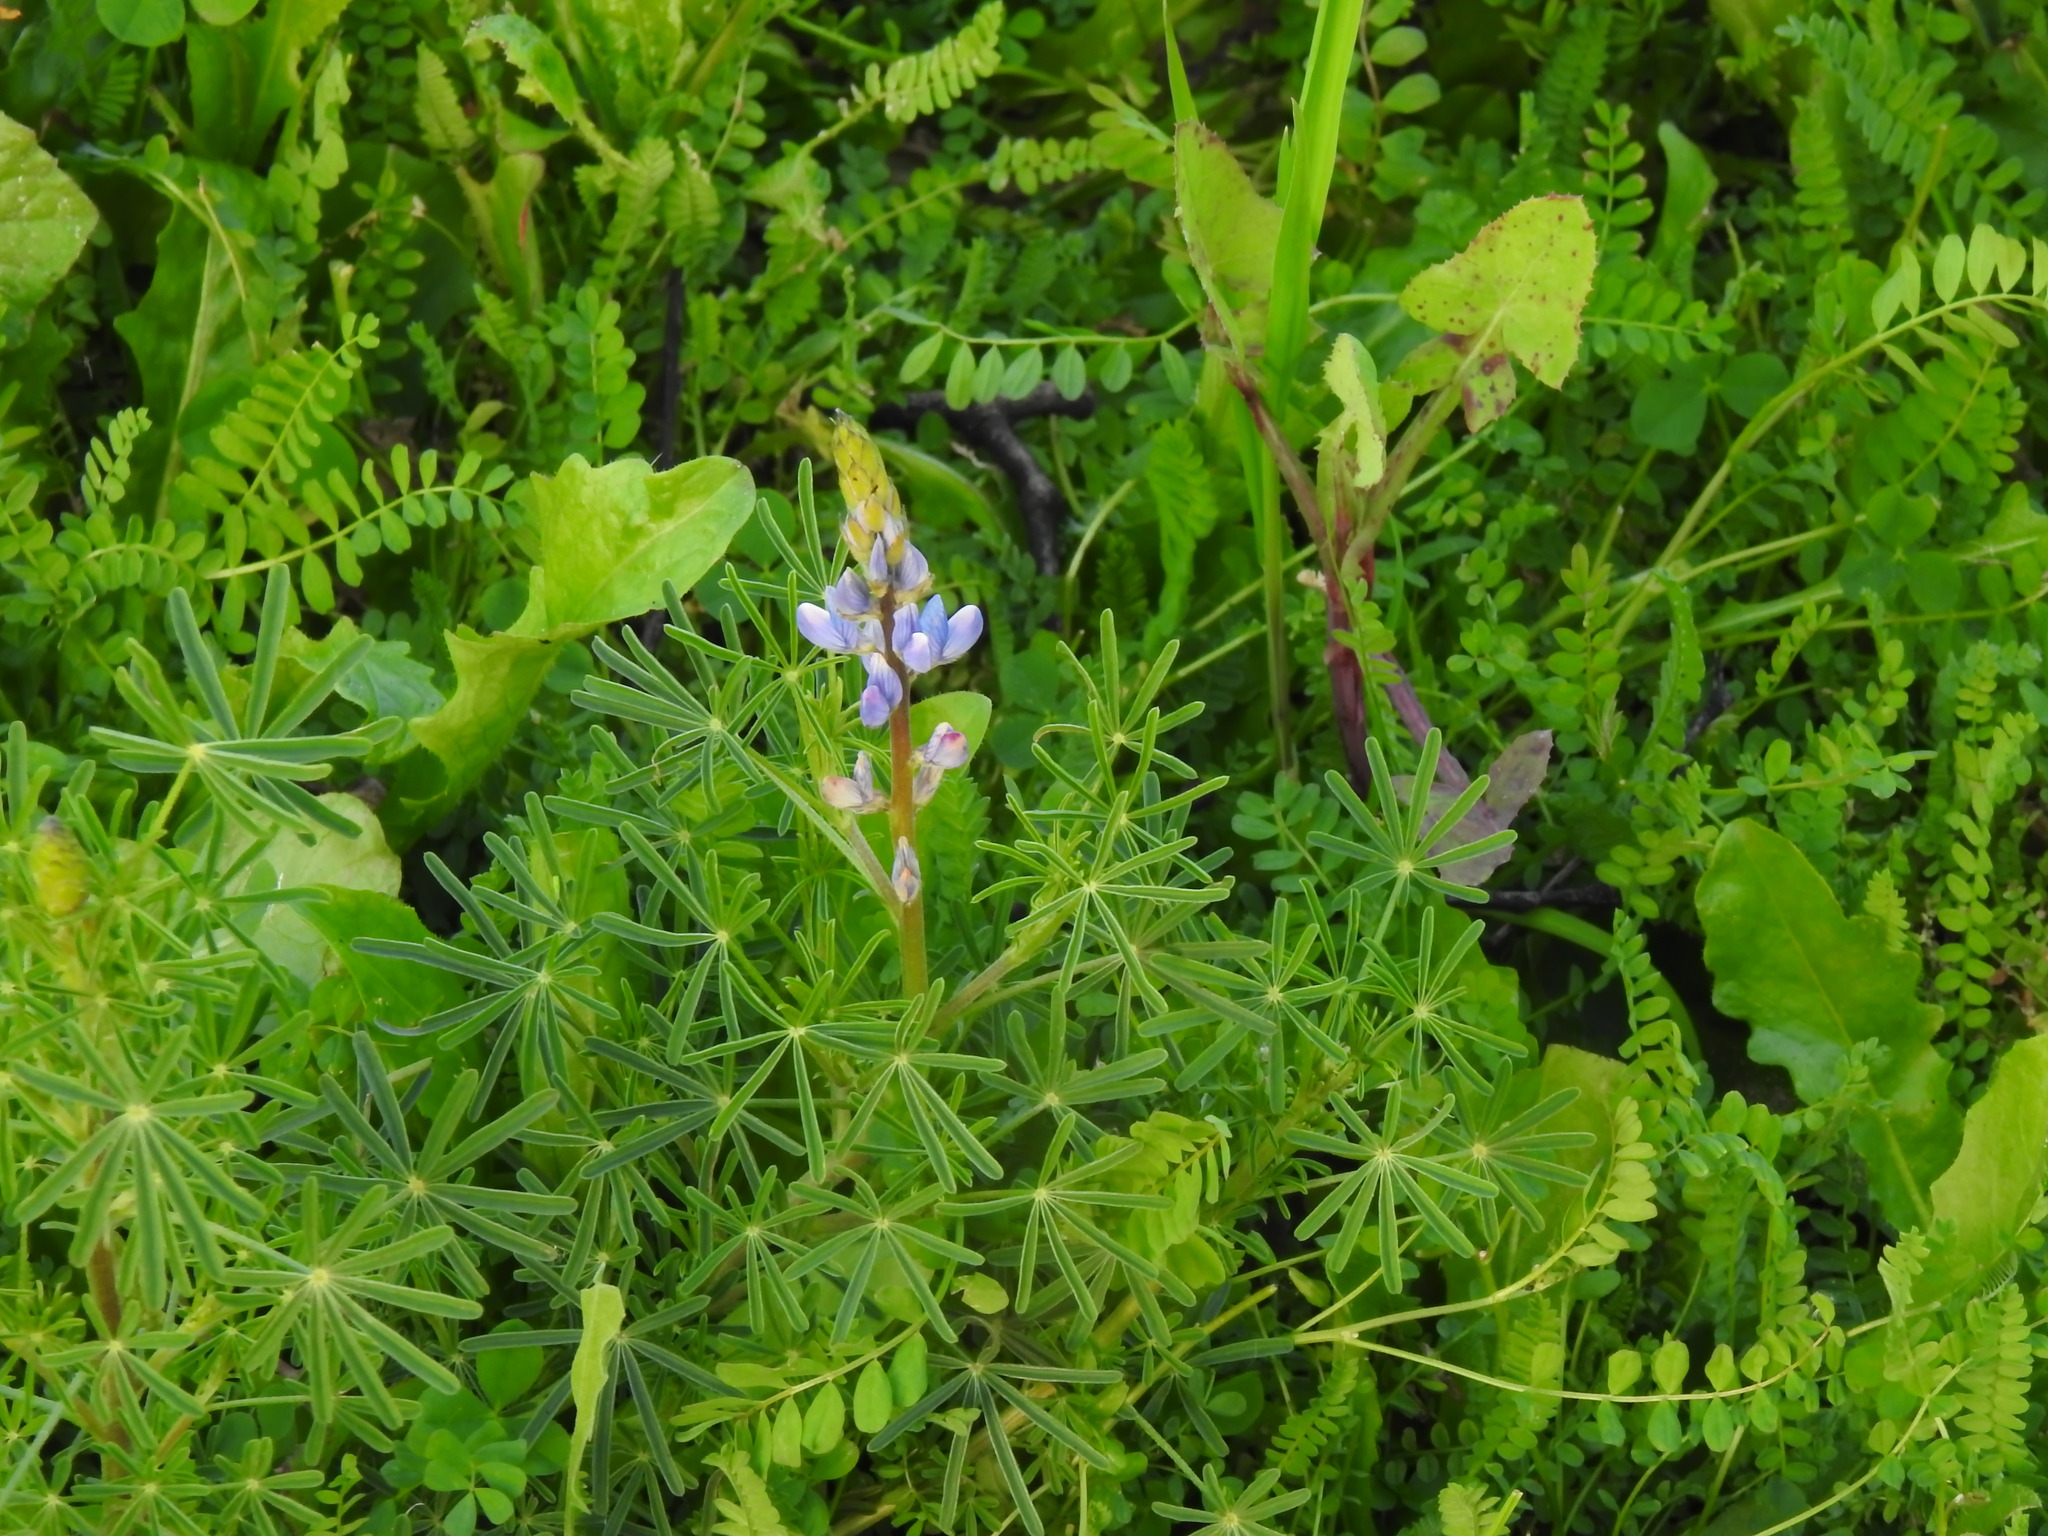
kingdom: Plantae
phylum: Tracheophyta
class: Magnoliopsida
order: Fabales
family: Fabaceae
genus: Lupinus
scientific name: Lupinus angustifolius
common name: Narrow-leaved lupin
